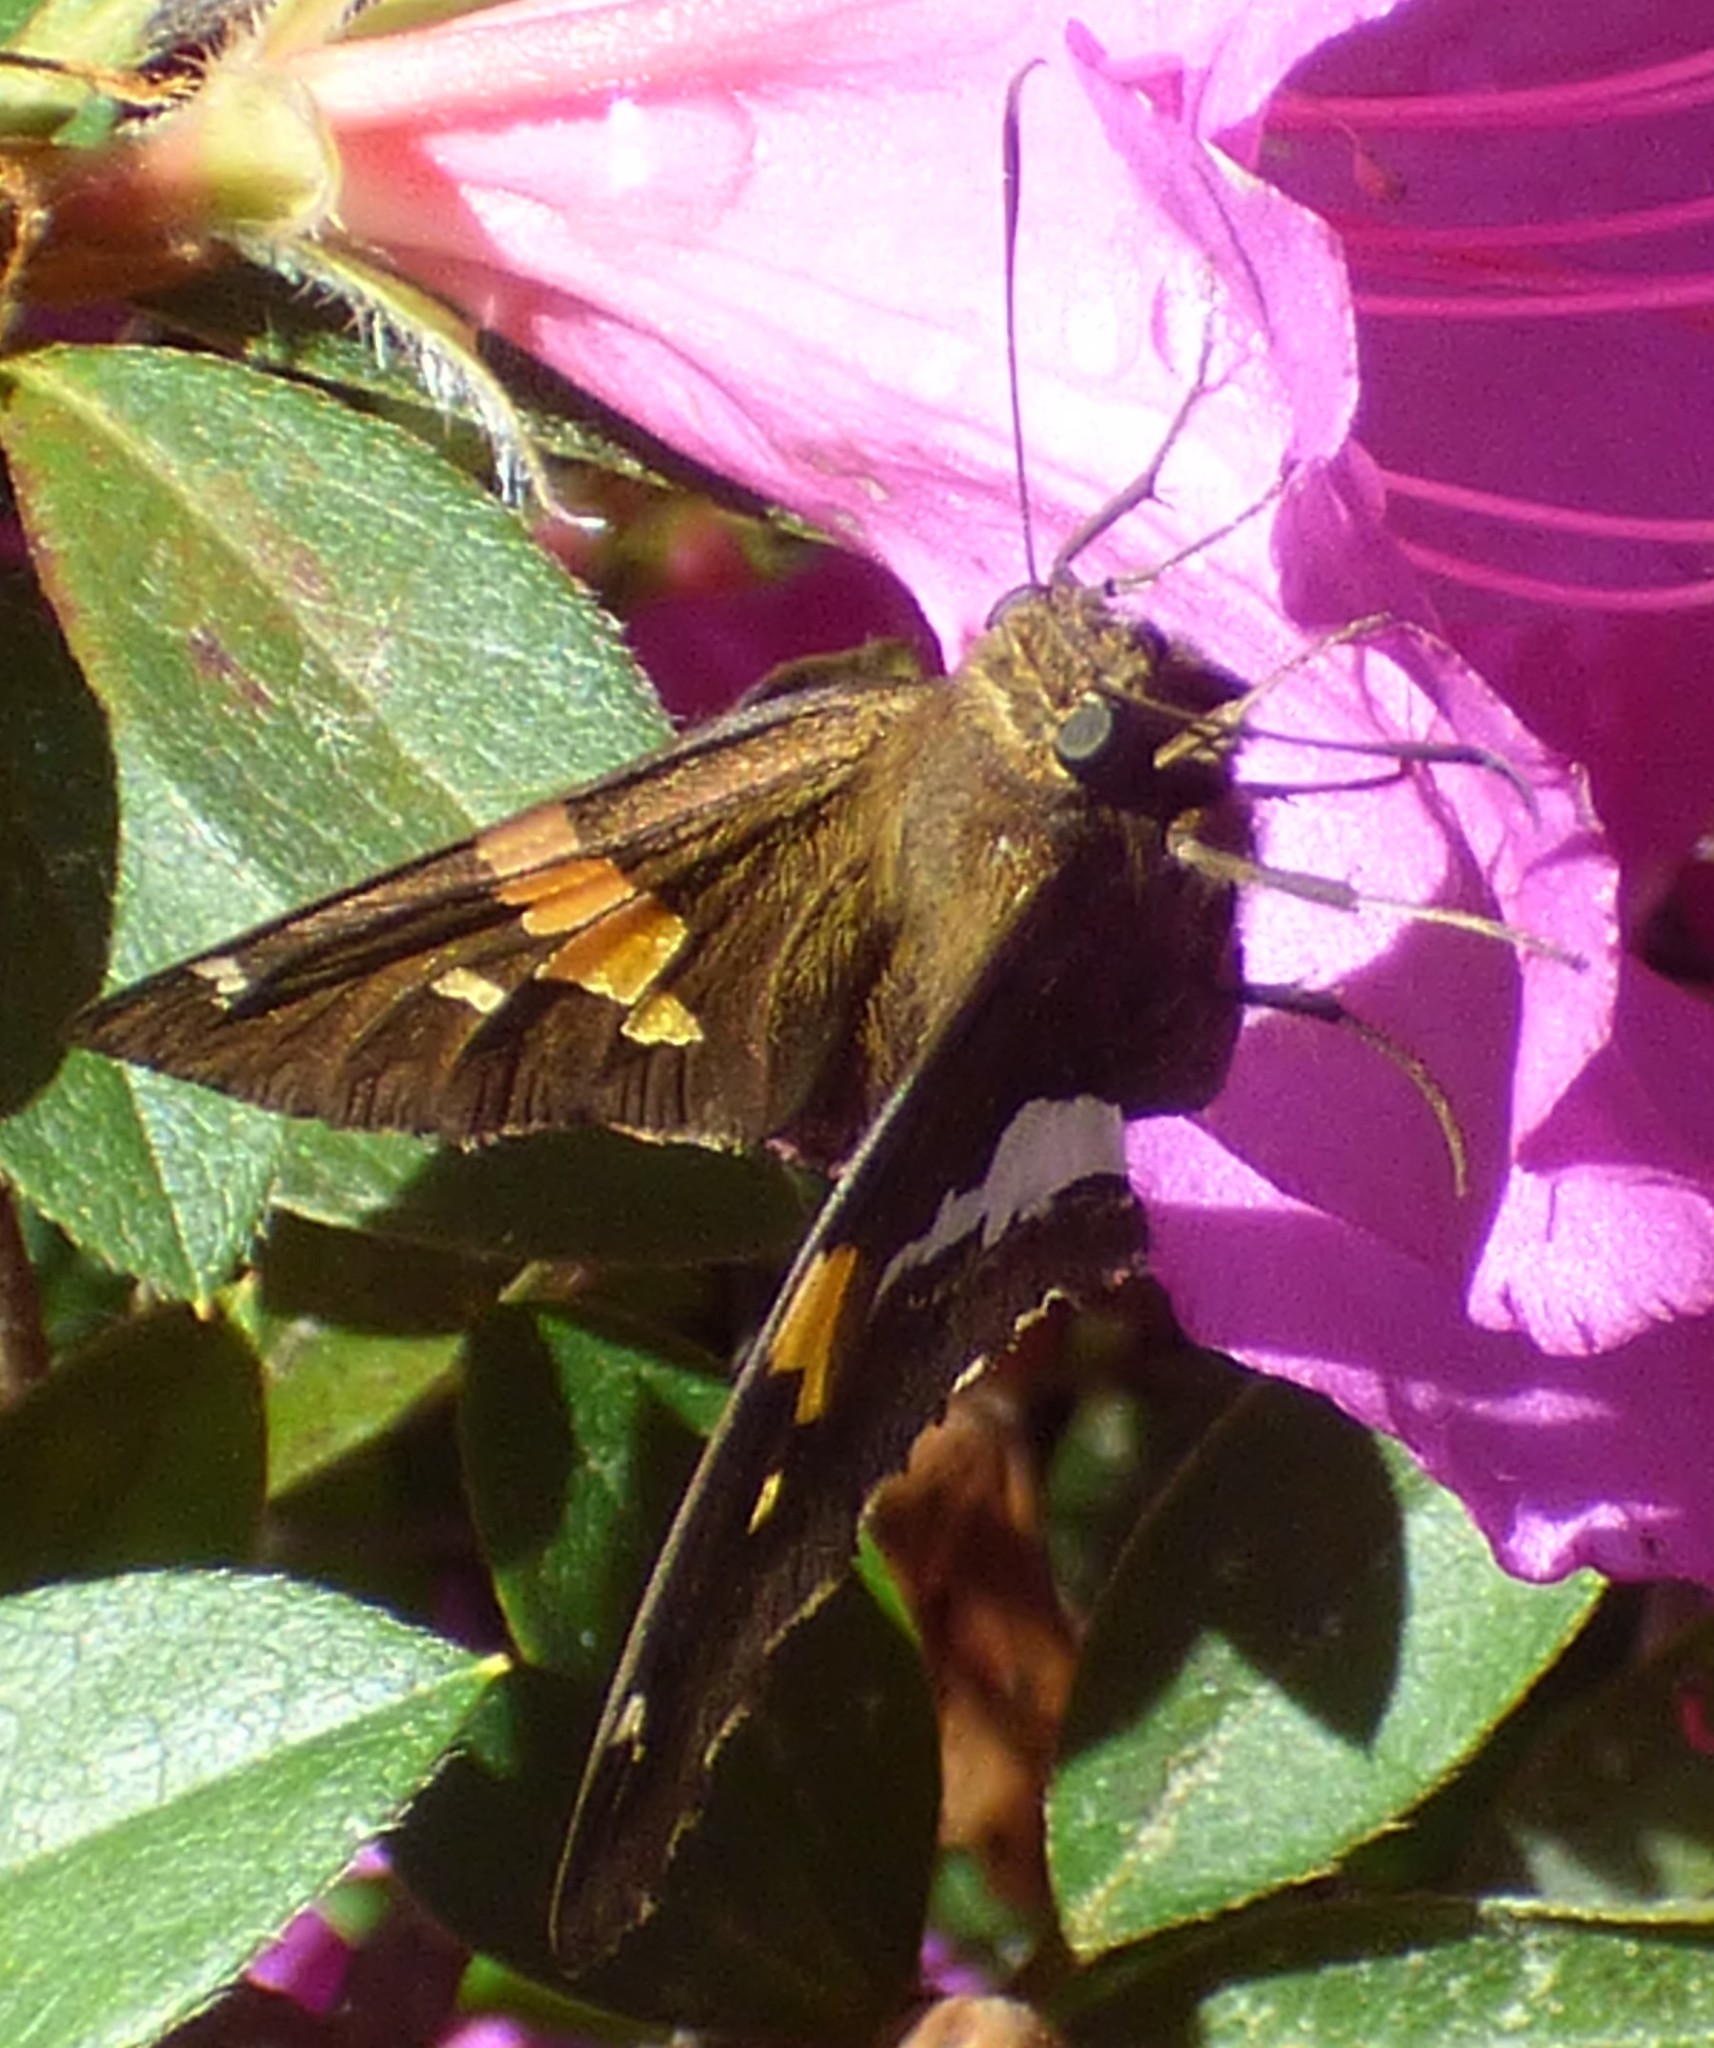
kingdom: Animalia
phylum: Arthropoda
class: Insecta
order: Lepidoptera
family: Hesperiidae
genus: Epargyreus
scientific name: Epargyreus clarus
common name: Silver-spotted skipper
